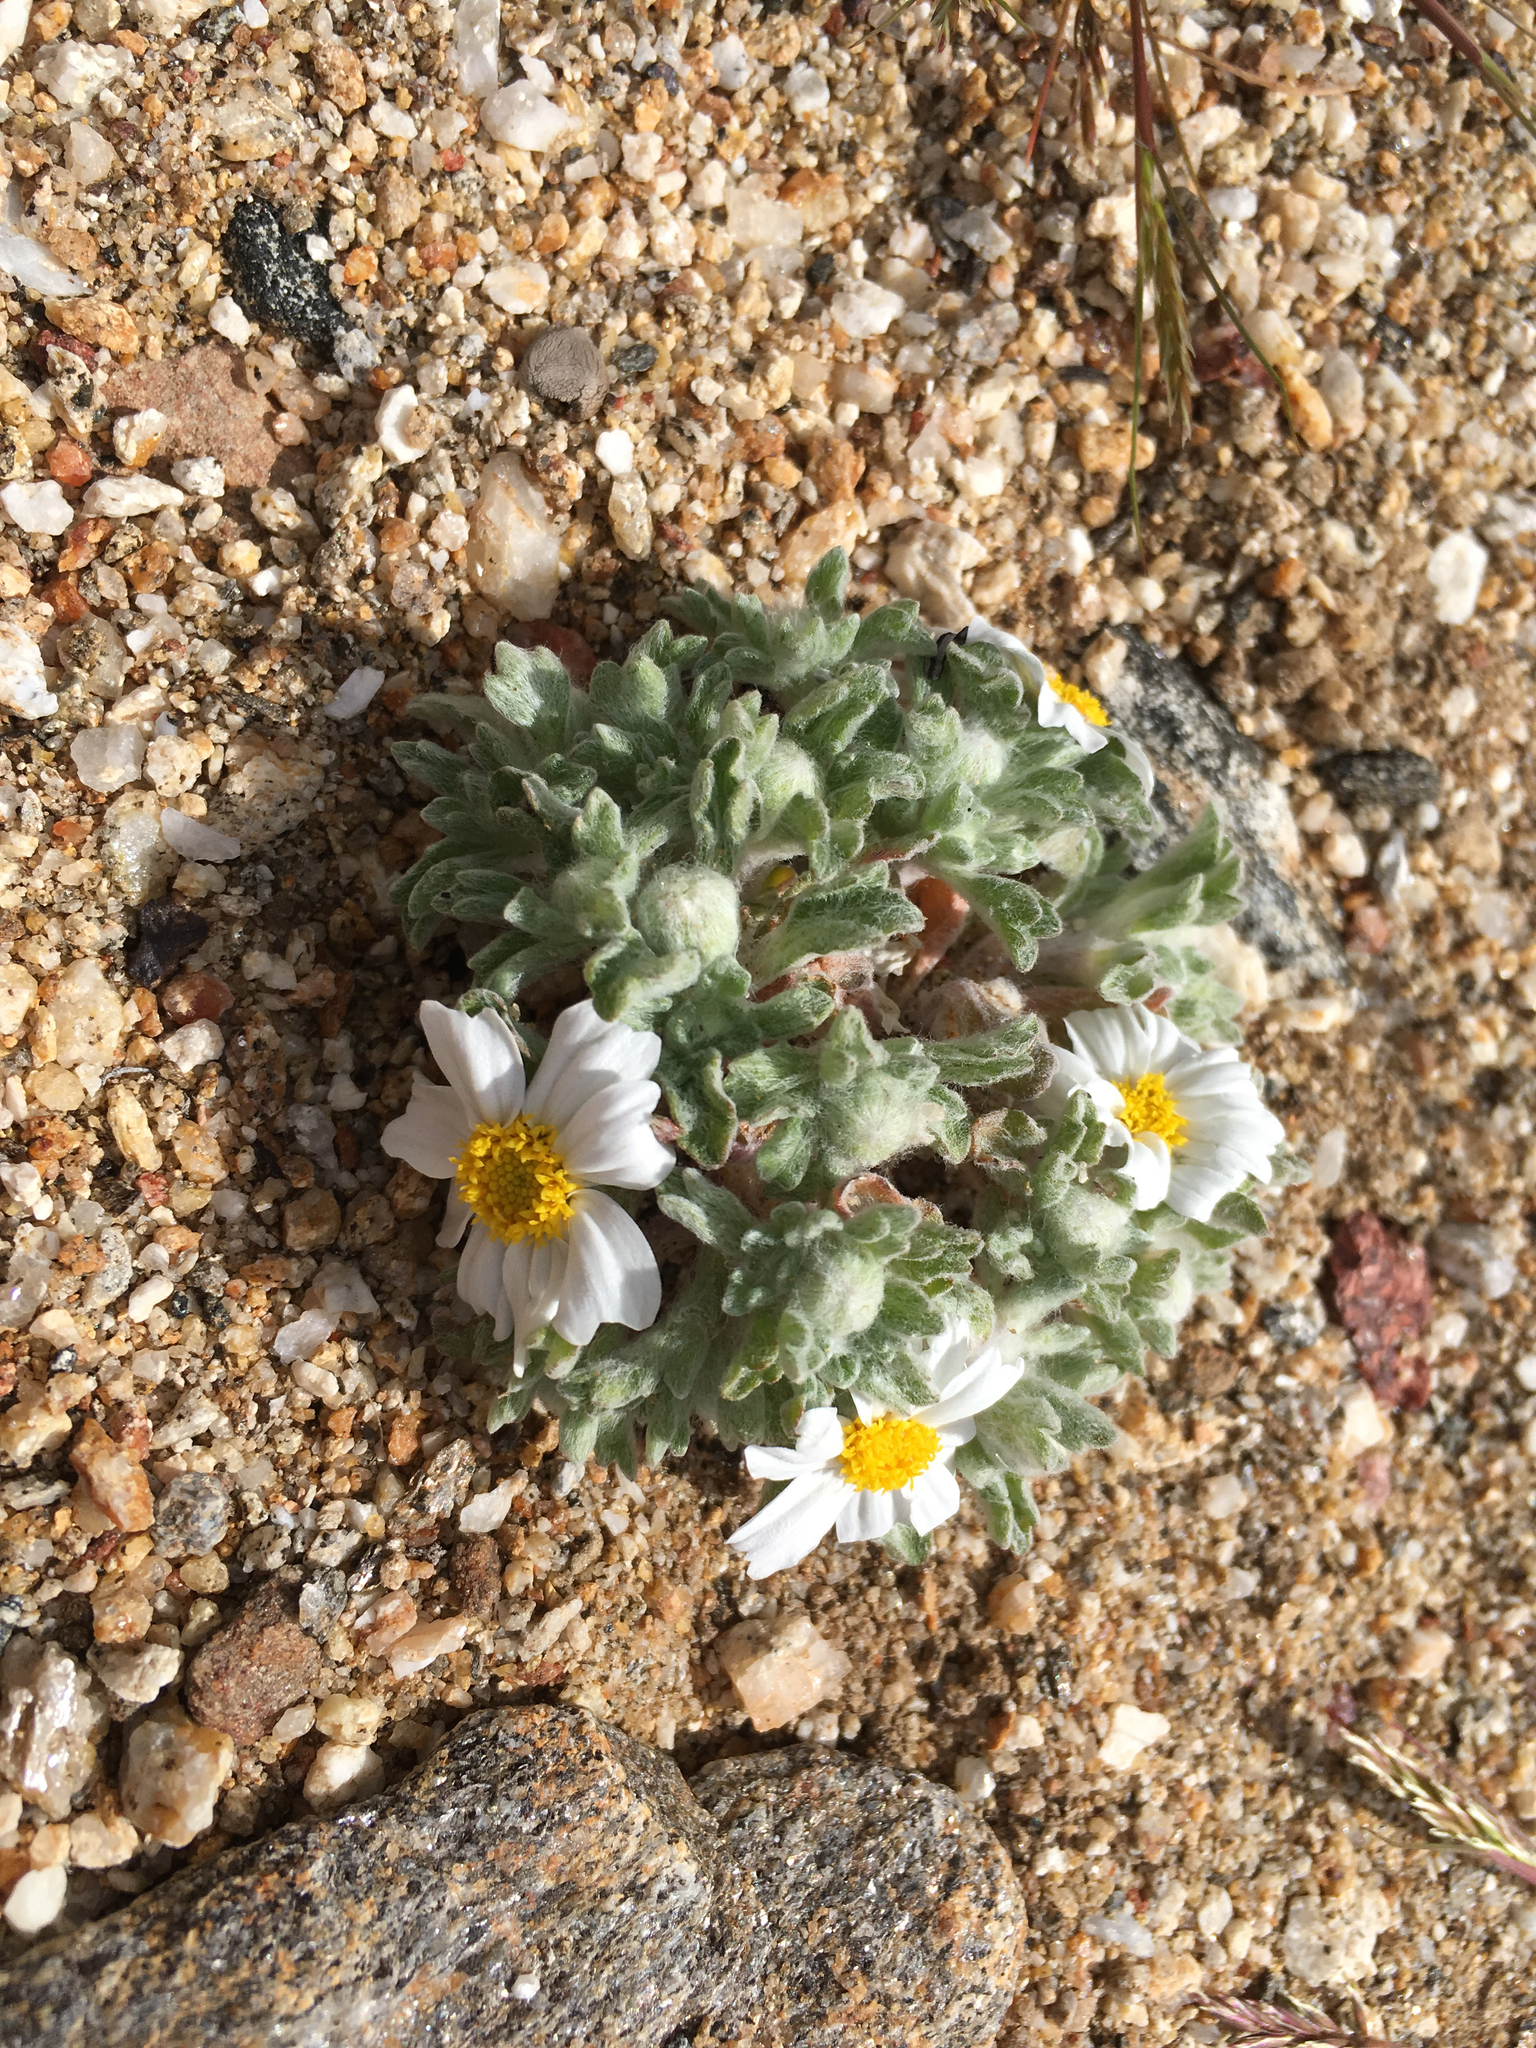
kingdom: Plantae
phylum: Tracheophyta
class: Magnoliopsida
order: Asterales
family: Asteraceae
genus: Eriophyllum
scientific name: Eriophyllum wallacei
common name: Wallace's woolly daisy
